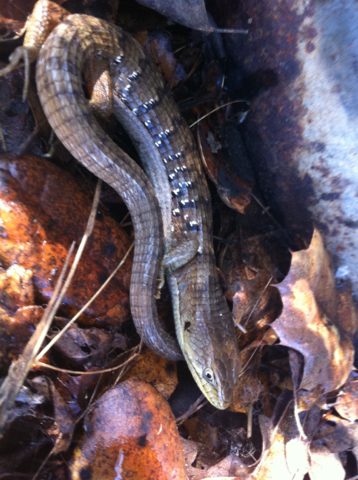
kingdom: Animalia
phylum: Chordata
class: Squamata
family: Anguidae
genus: Elgaria
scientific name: Elgaria multicarinata
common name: Southern alligator lizard
